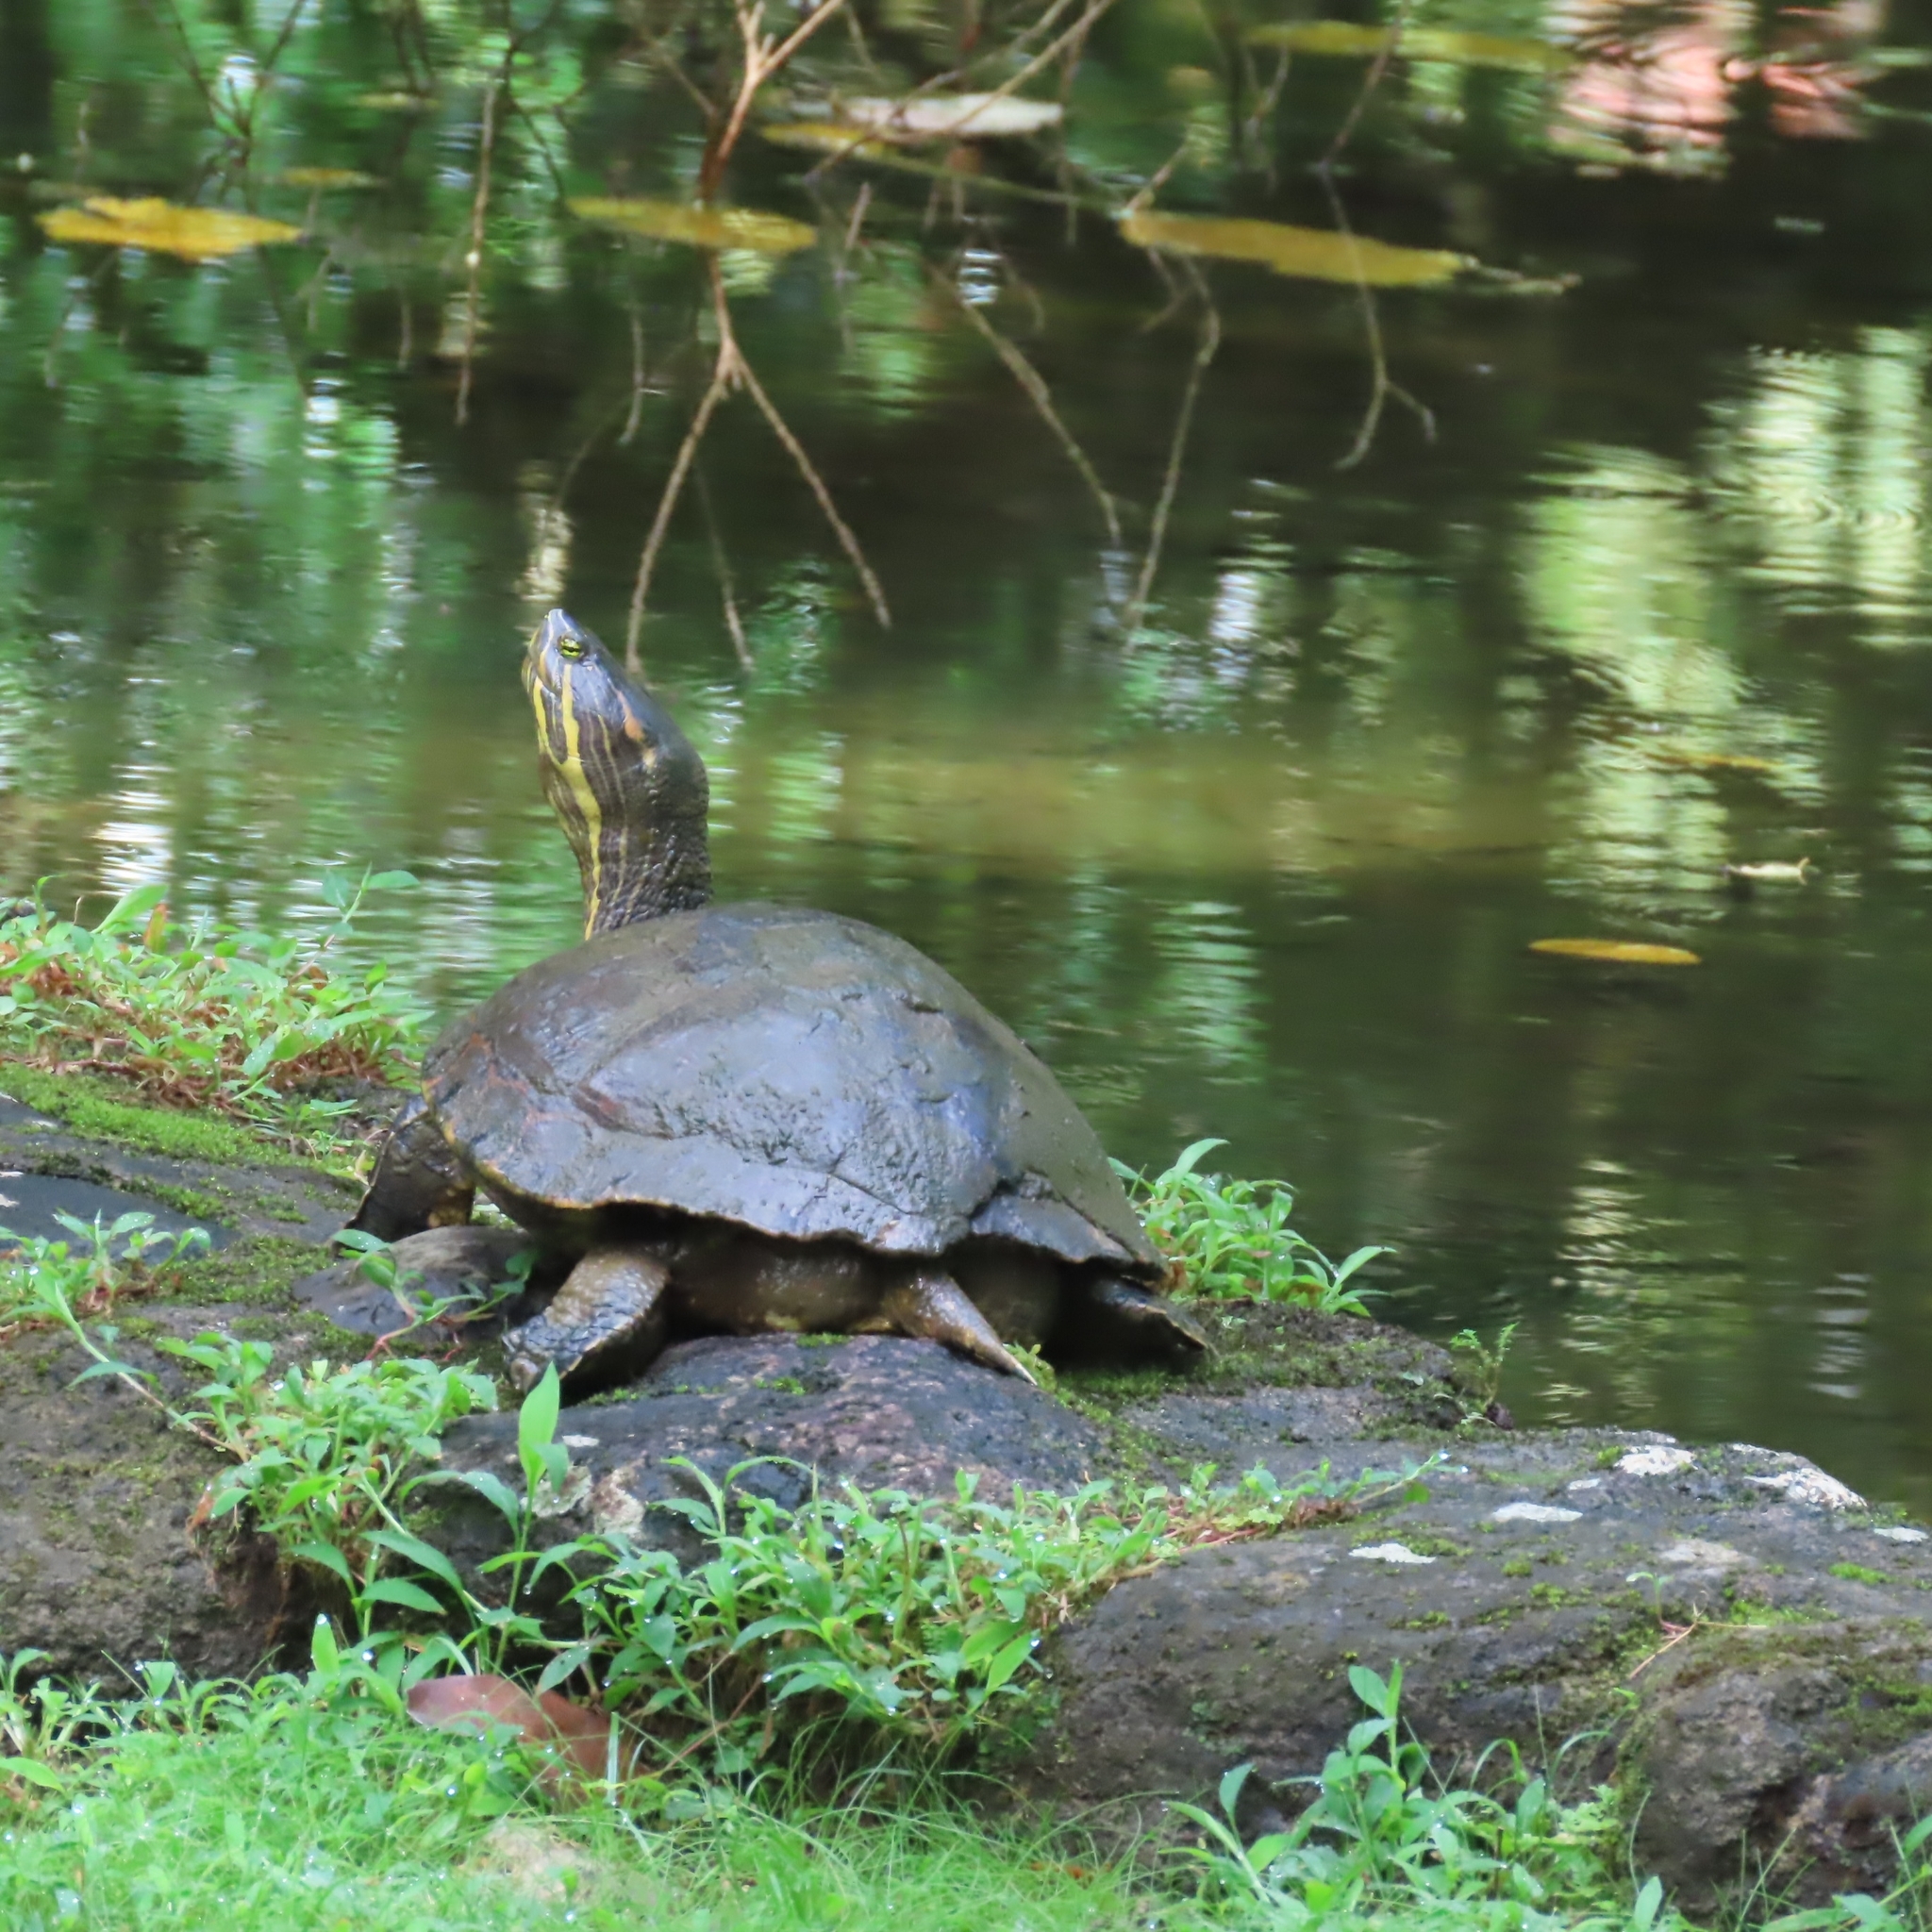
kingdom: Animalia
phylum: Chordata
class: Testudines
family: Emydidae
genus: Trachemys
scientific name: Trachemys grayi
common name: Gray's slider
